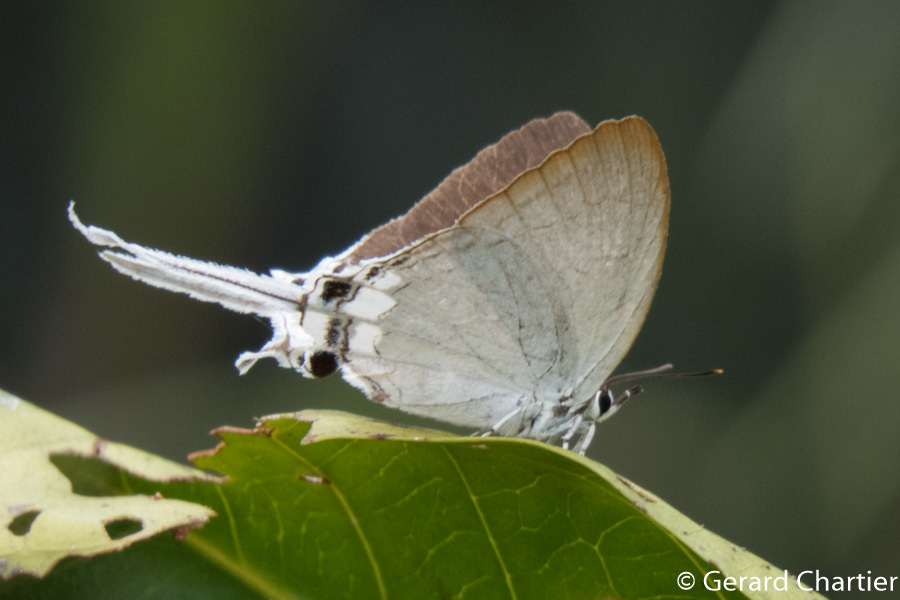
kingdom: Animalia
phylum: Arthropoda
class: Insecta
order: Lepidoptera
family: Lycaenidae
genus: Cheritra
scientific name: Cheritra freja
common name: Common imperial
